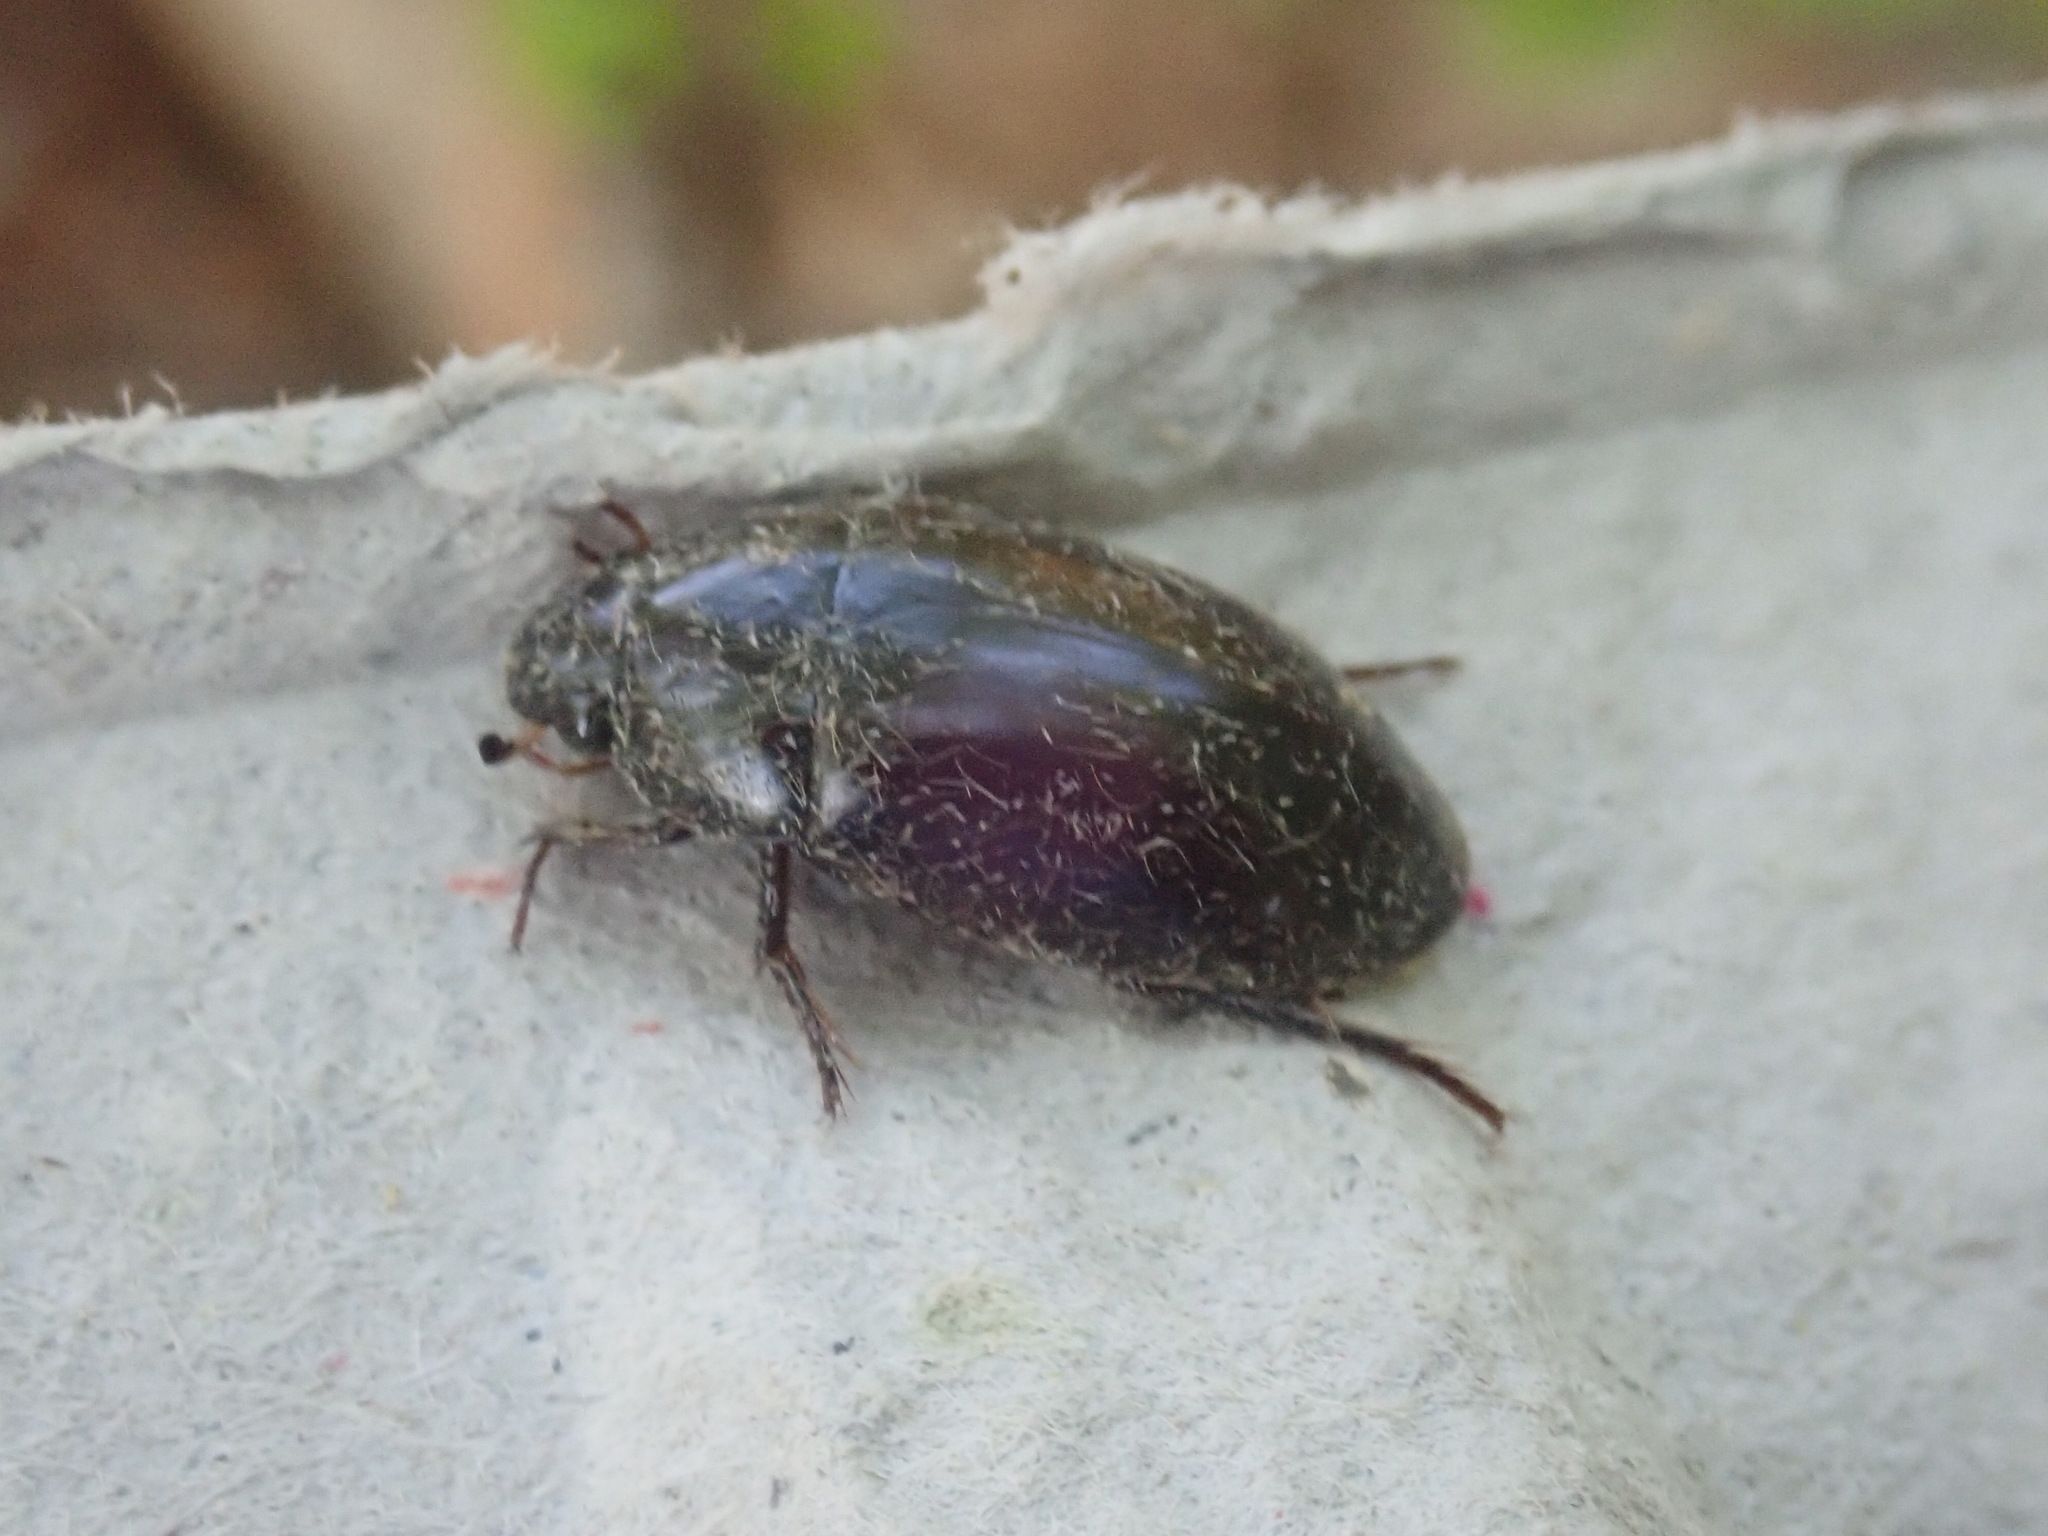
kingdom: Animalia
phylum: Arthropoda
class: Insecta
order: Coleoptera
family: Hydrophilidae
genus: Hydrochara
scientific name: Hydrochara
